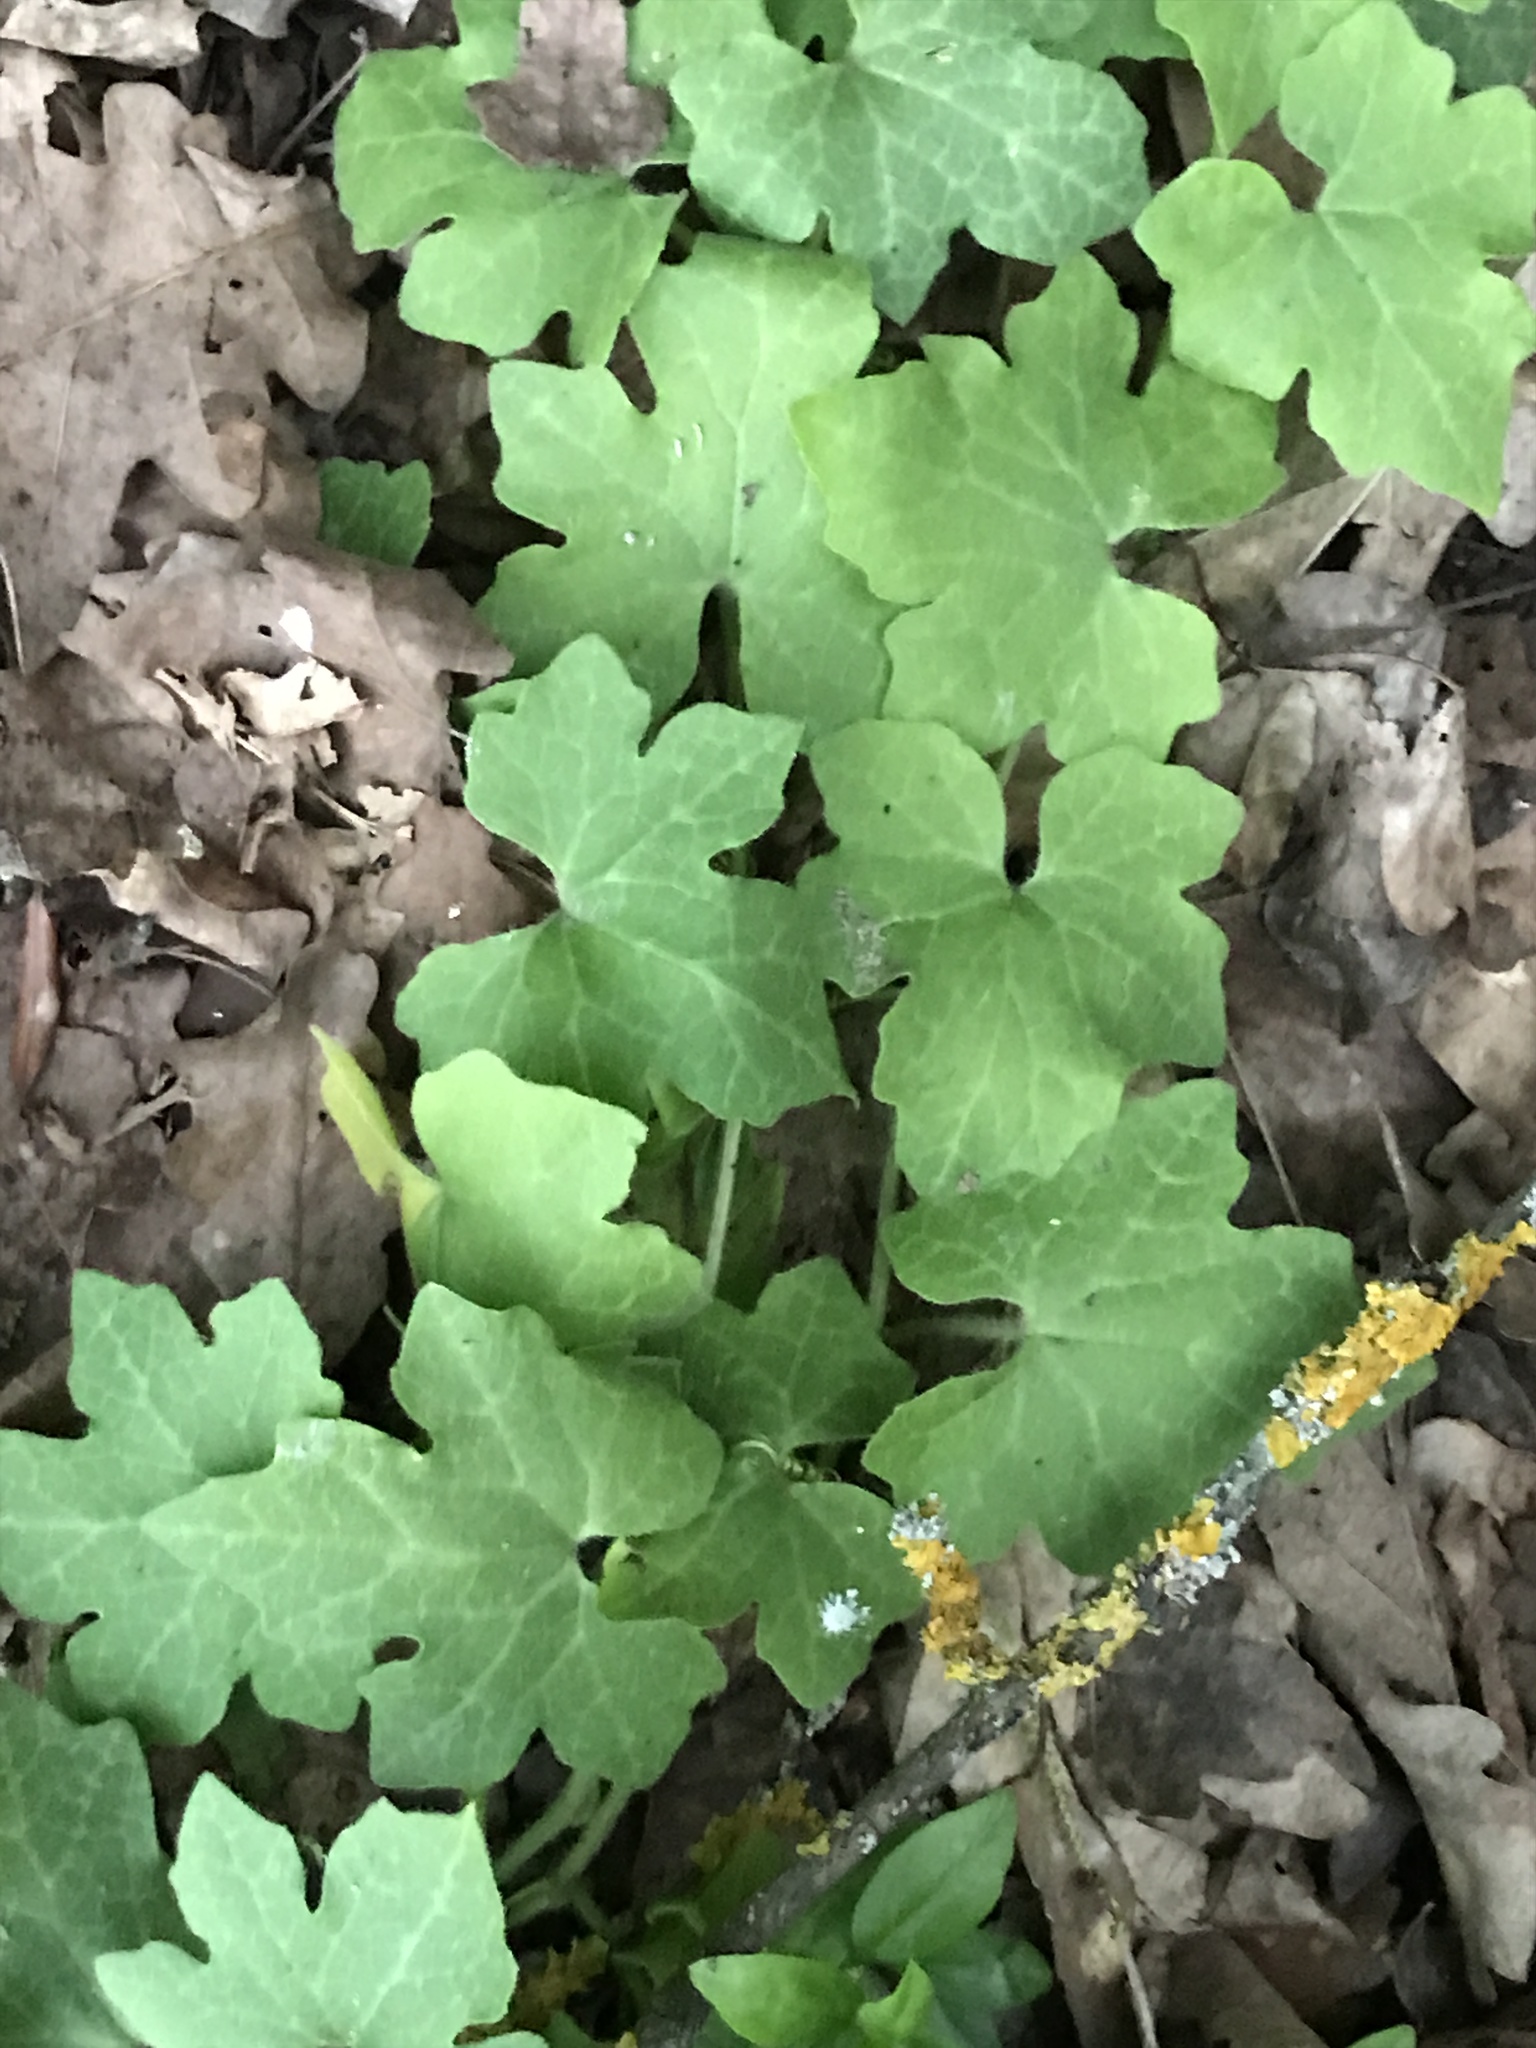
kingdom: Plantae
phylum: Tracheophyta
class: Magnoliopsida
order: Cucurbitales
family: Cucurbitaceae
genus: Bryonia
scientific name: Bryonia cretica
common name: Cretan bryony
